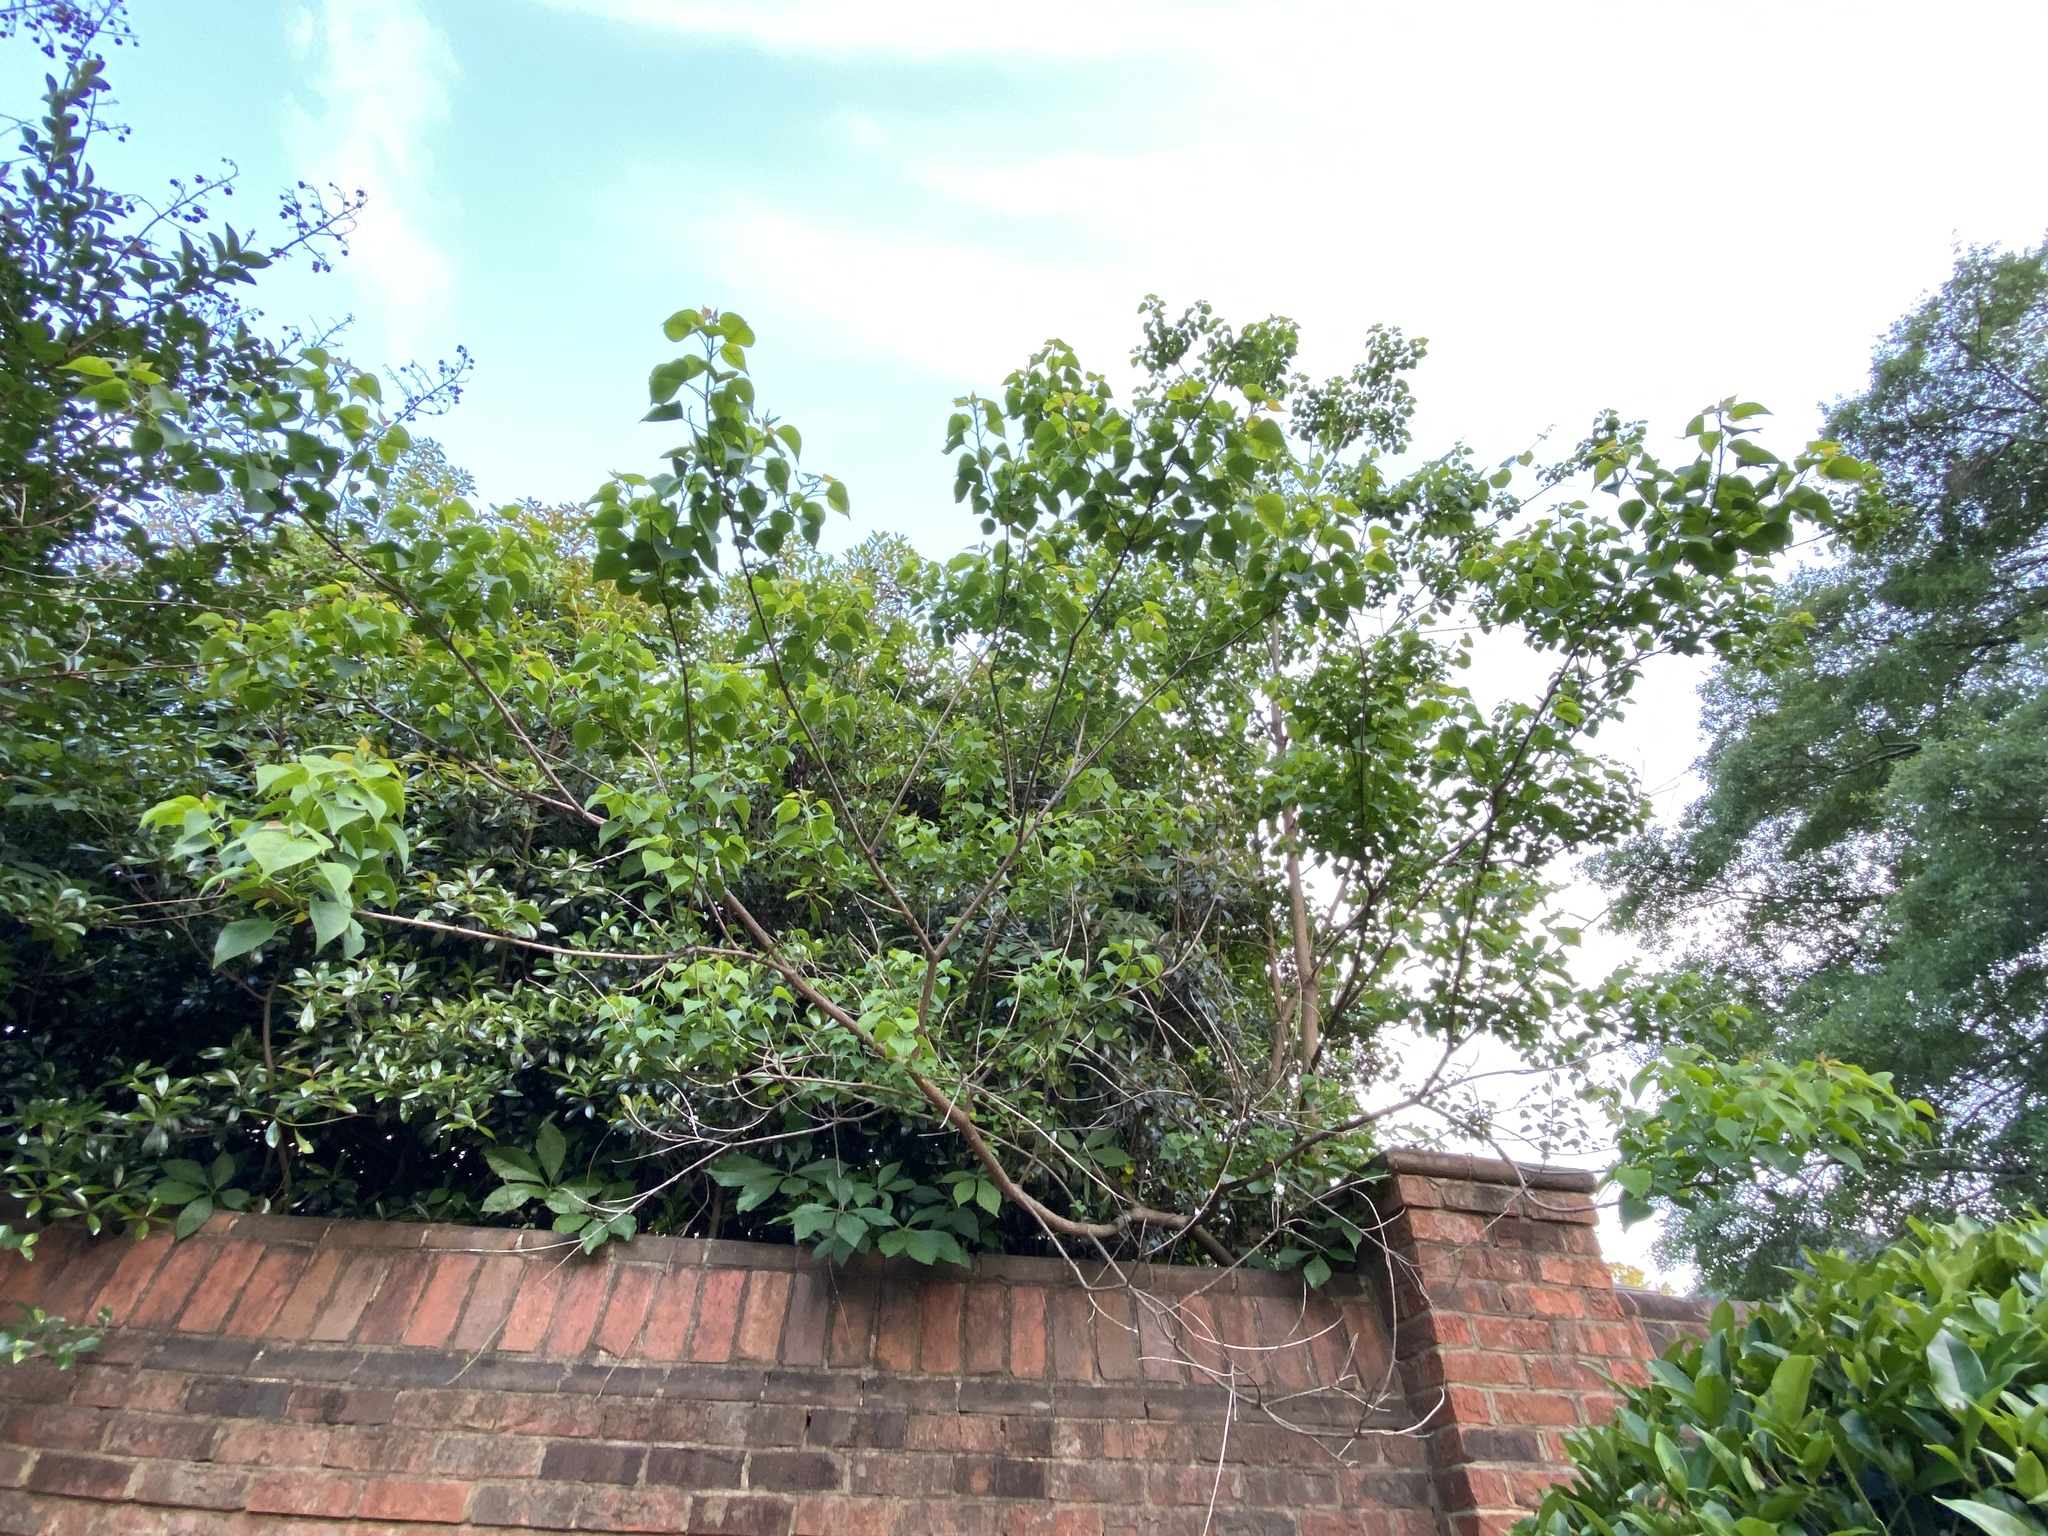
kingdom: Plantae
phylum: Tracheophyta
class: Magnoliopsida
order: Malpighiales
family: Euphorbiaceae
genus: Triadica
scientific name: Triadica sebifera
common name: Chinese tallow
